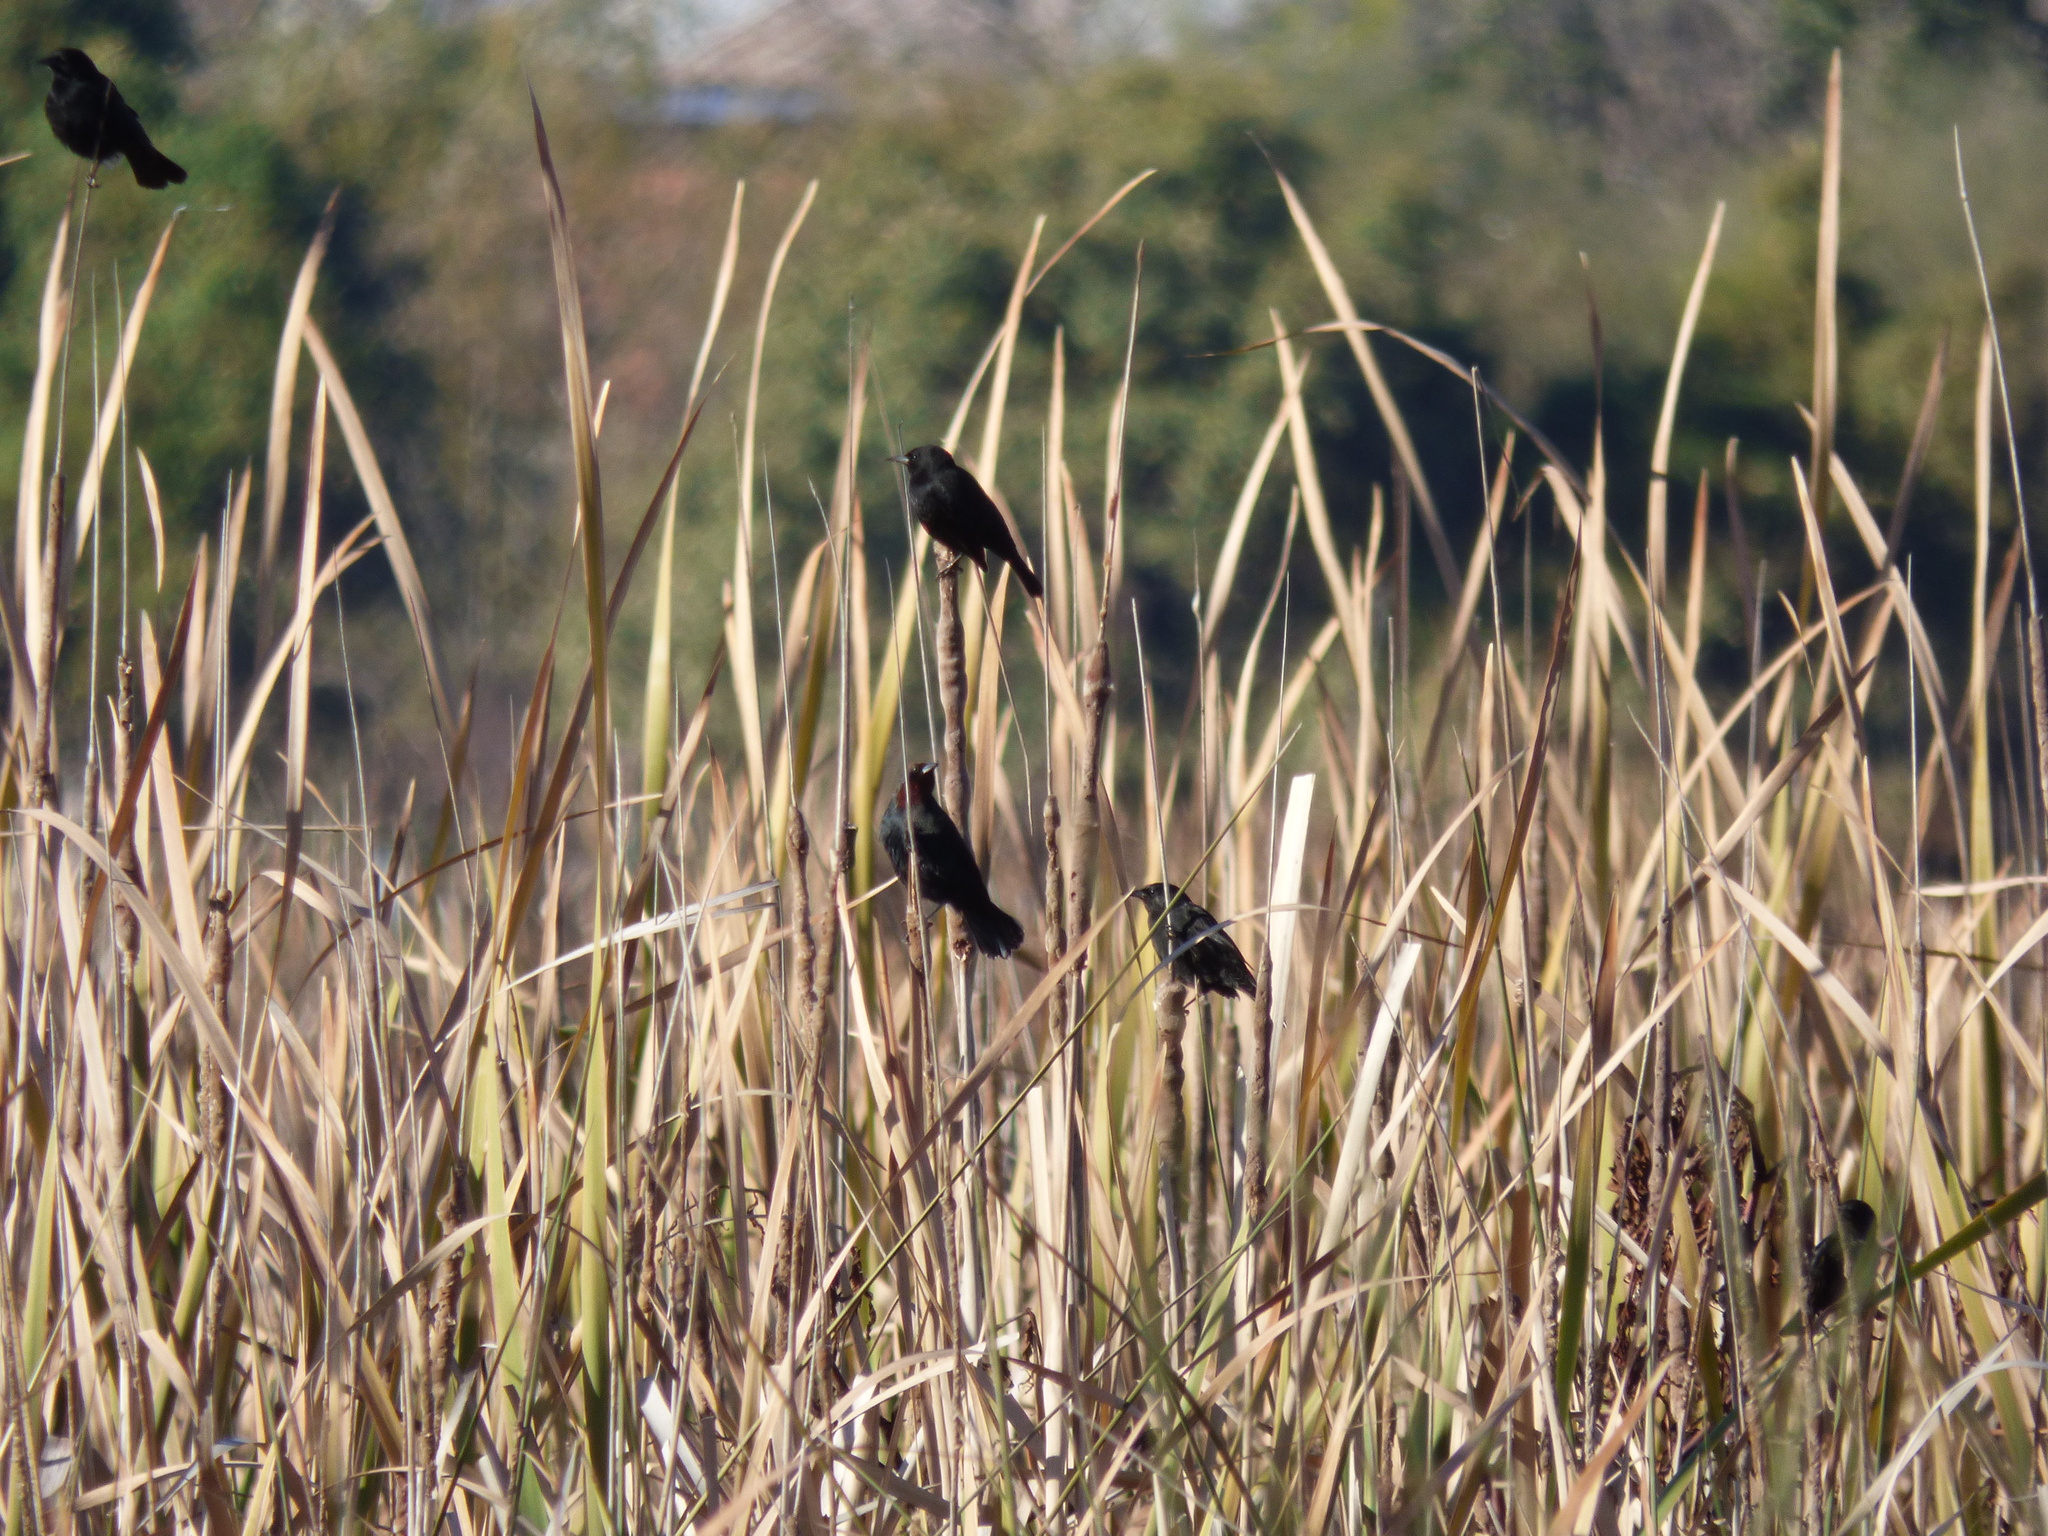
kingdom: Animalia
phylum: Chordata
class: Aves
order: Passeriformes
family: Icteridae
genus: Agelasticus
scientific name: Agelasticus thilius
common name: Yellow-winged blackbird
